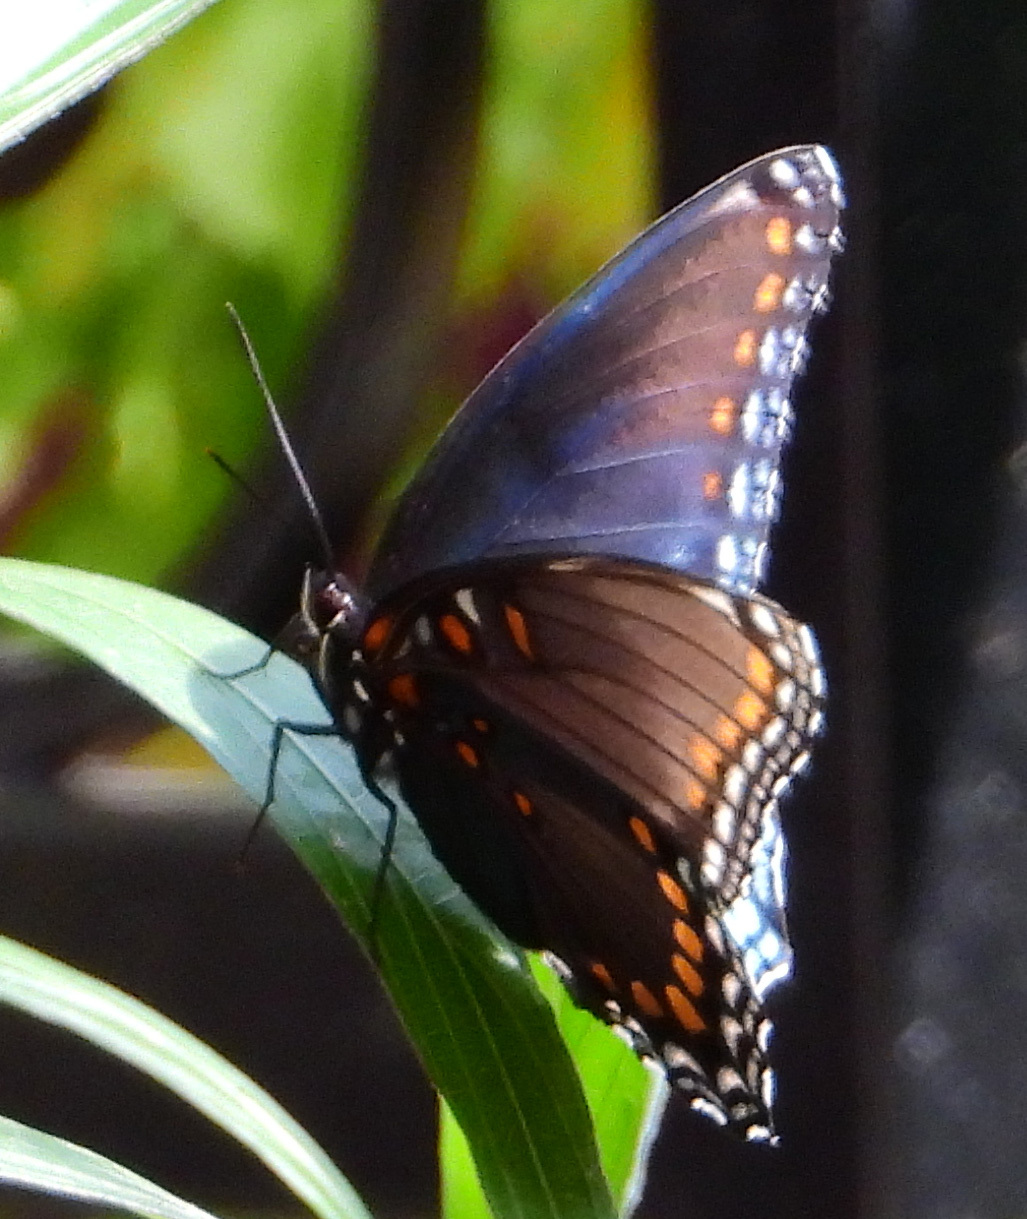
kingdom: Animalia
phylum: Arthropoda
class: Insecta
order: Lepidoptera
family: Nymphalidae
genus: Limenitis
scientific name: Limenitis astyanax
